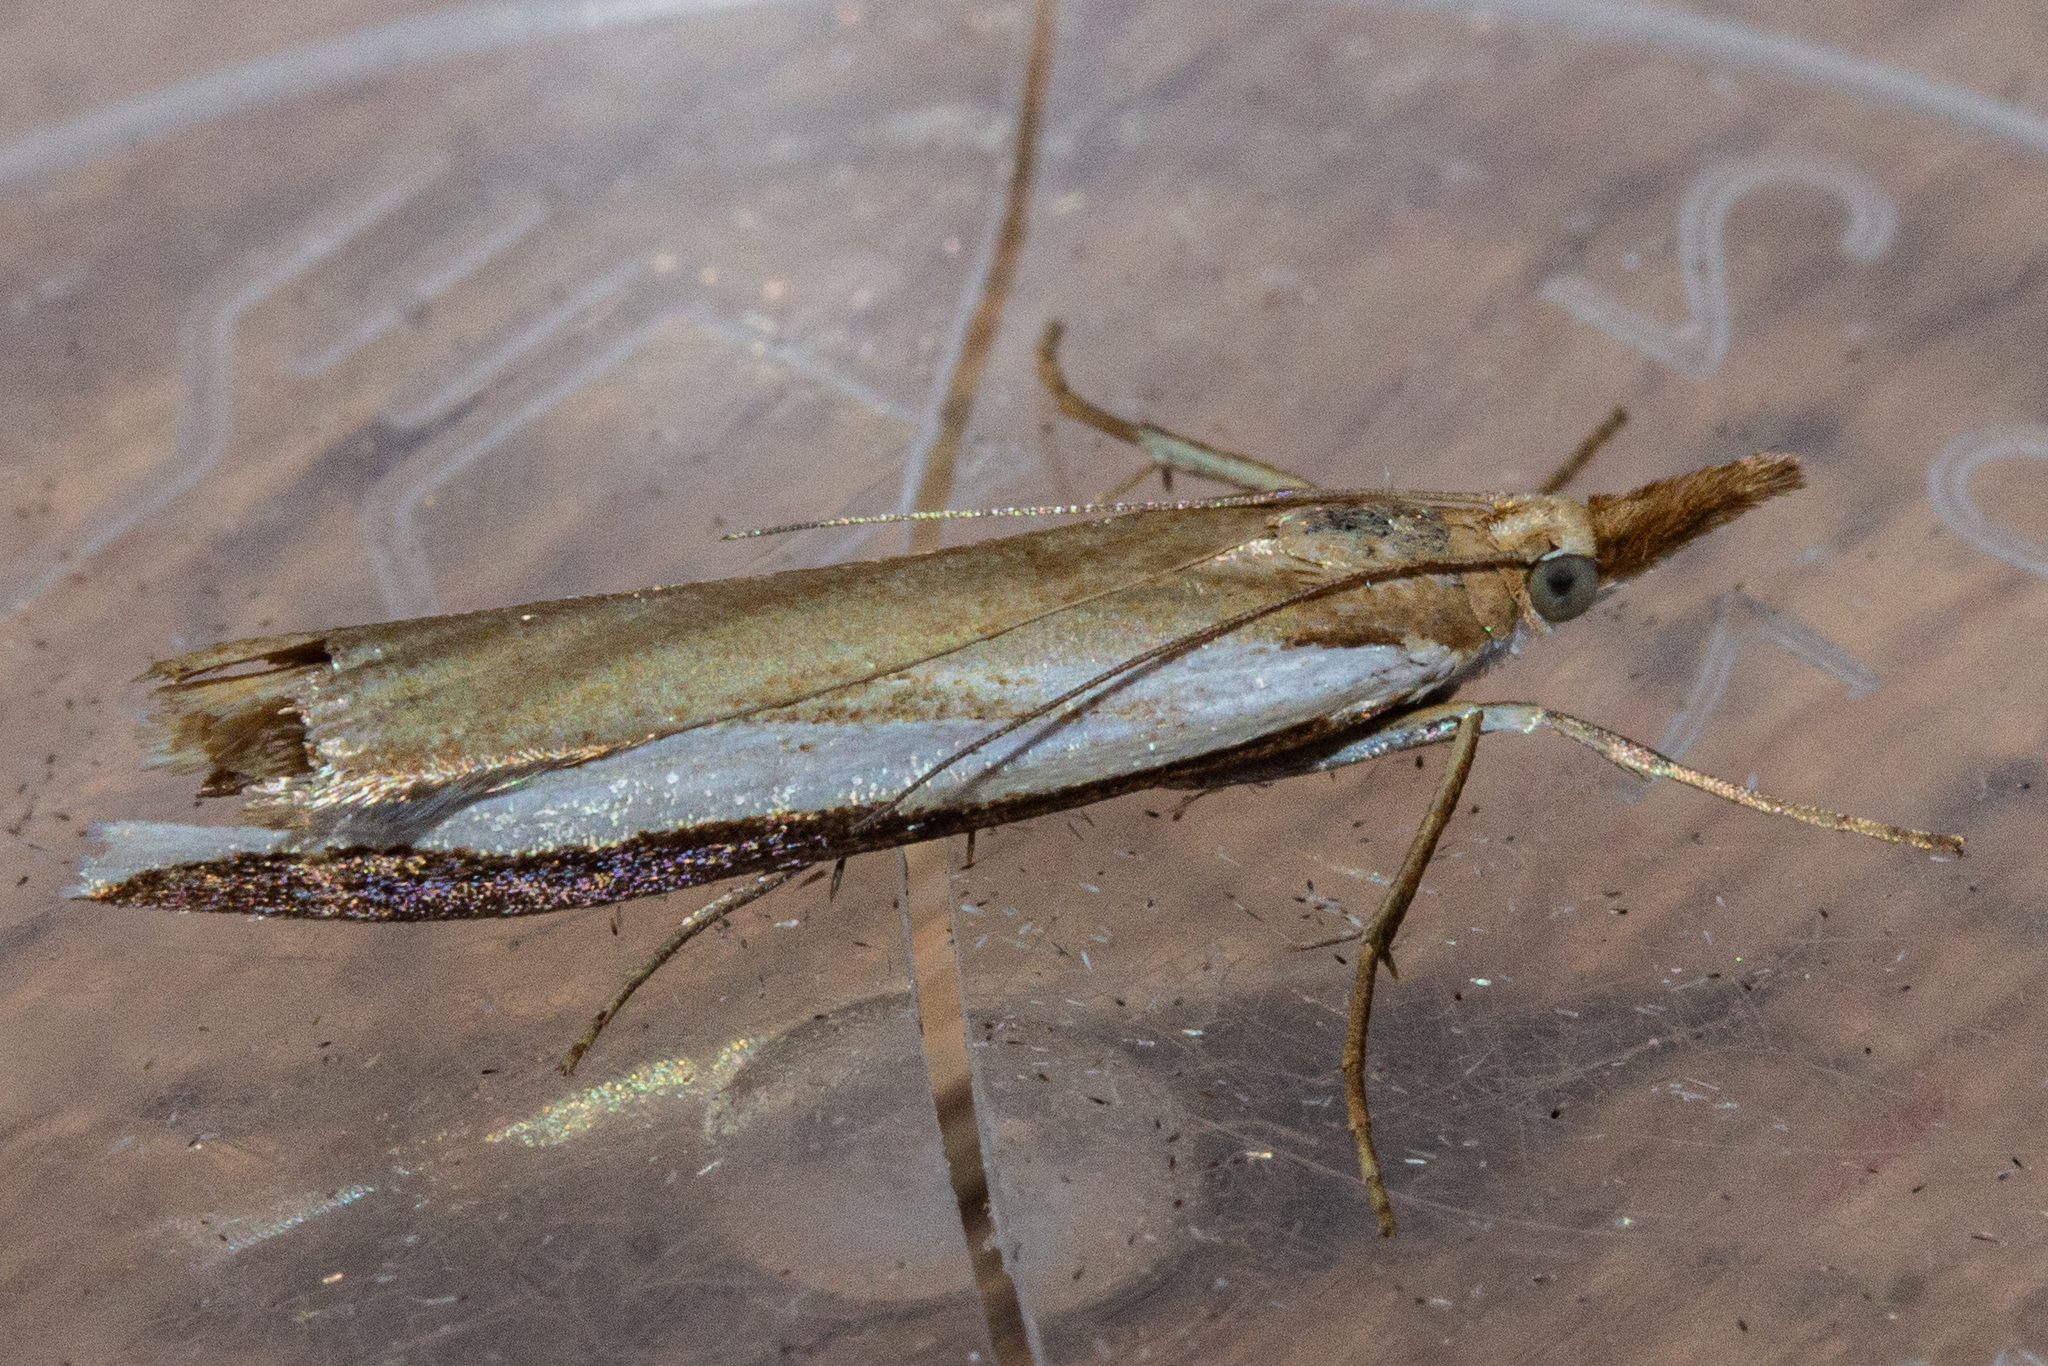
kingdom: Animalia
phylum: Arthropoda
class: Insecta
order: Lepidoptera
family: Crambidae
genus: Orocrambus
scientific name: Orocrambus flexuosellus
